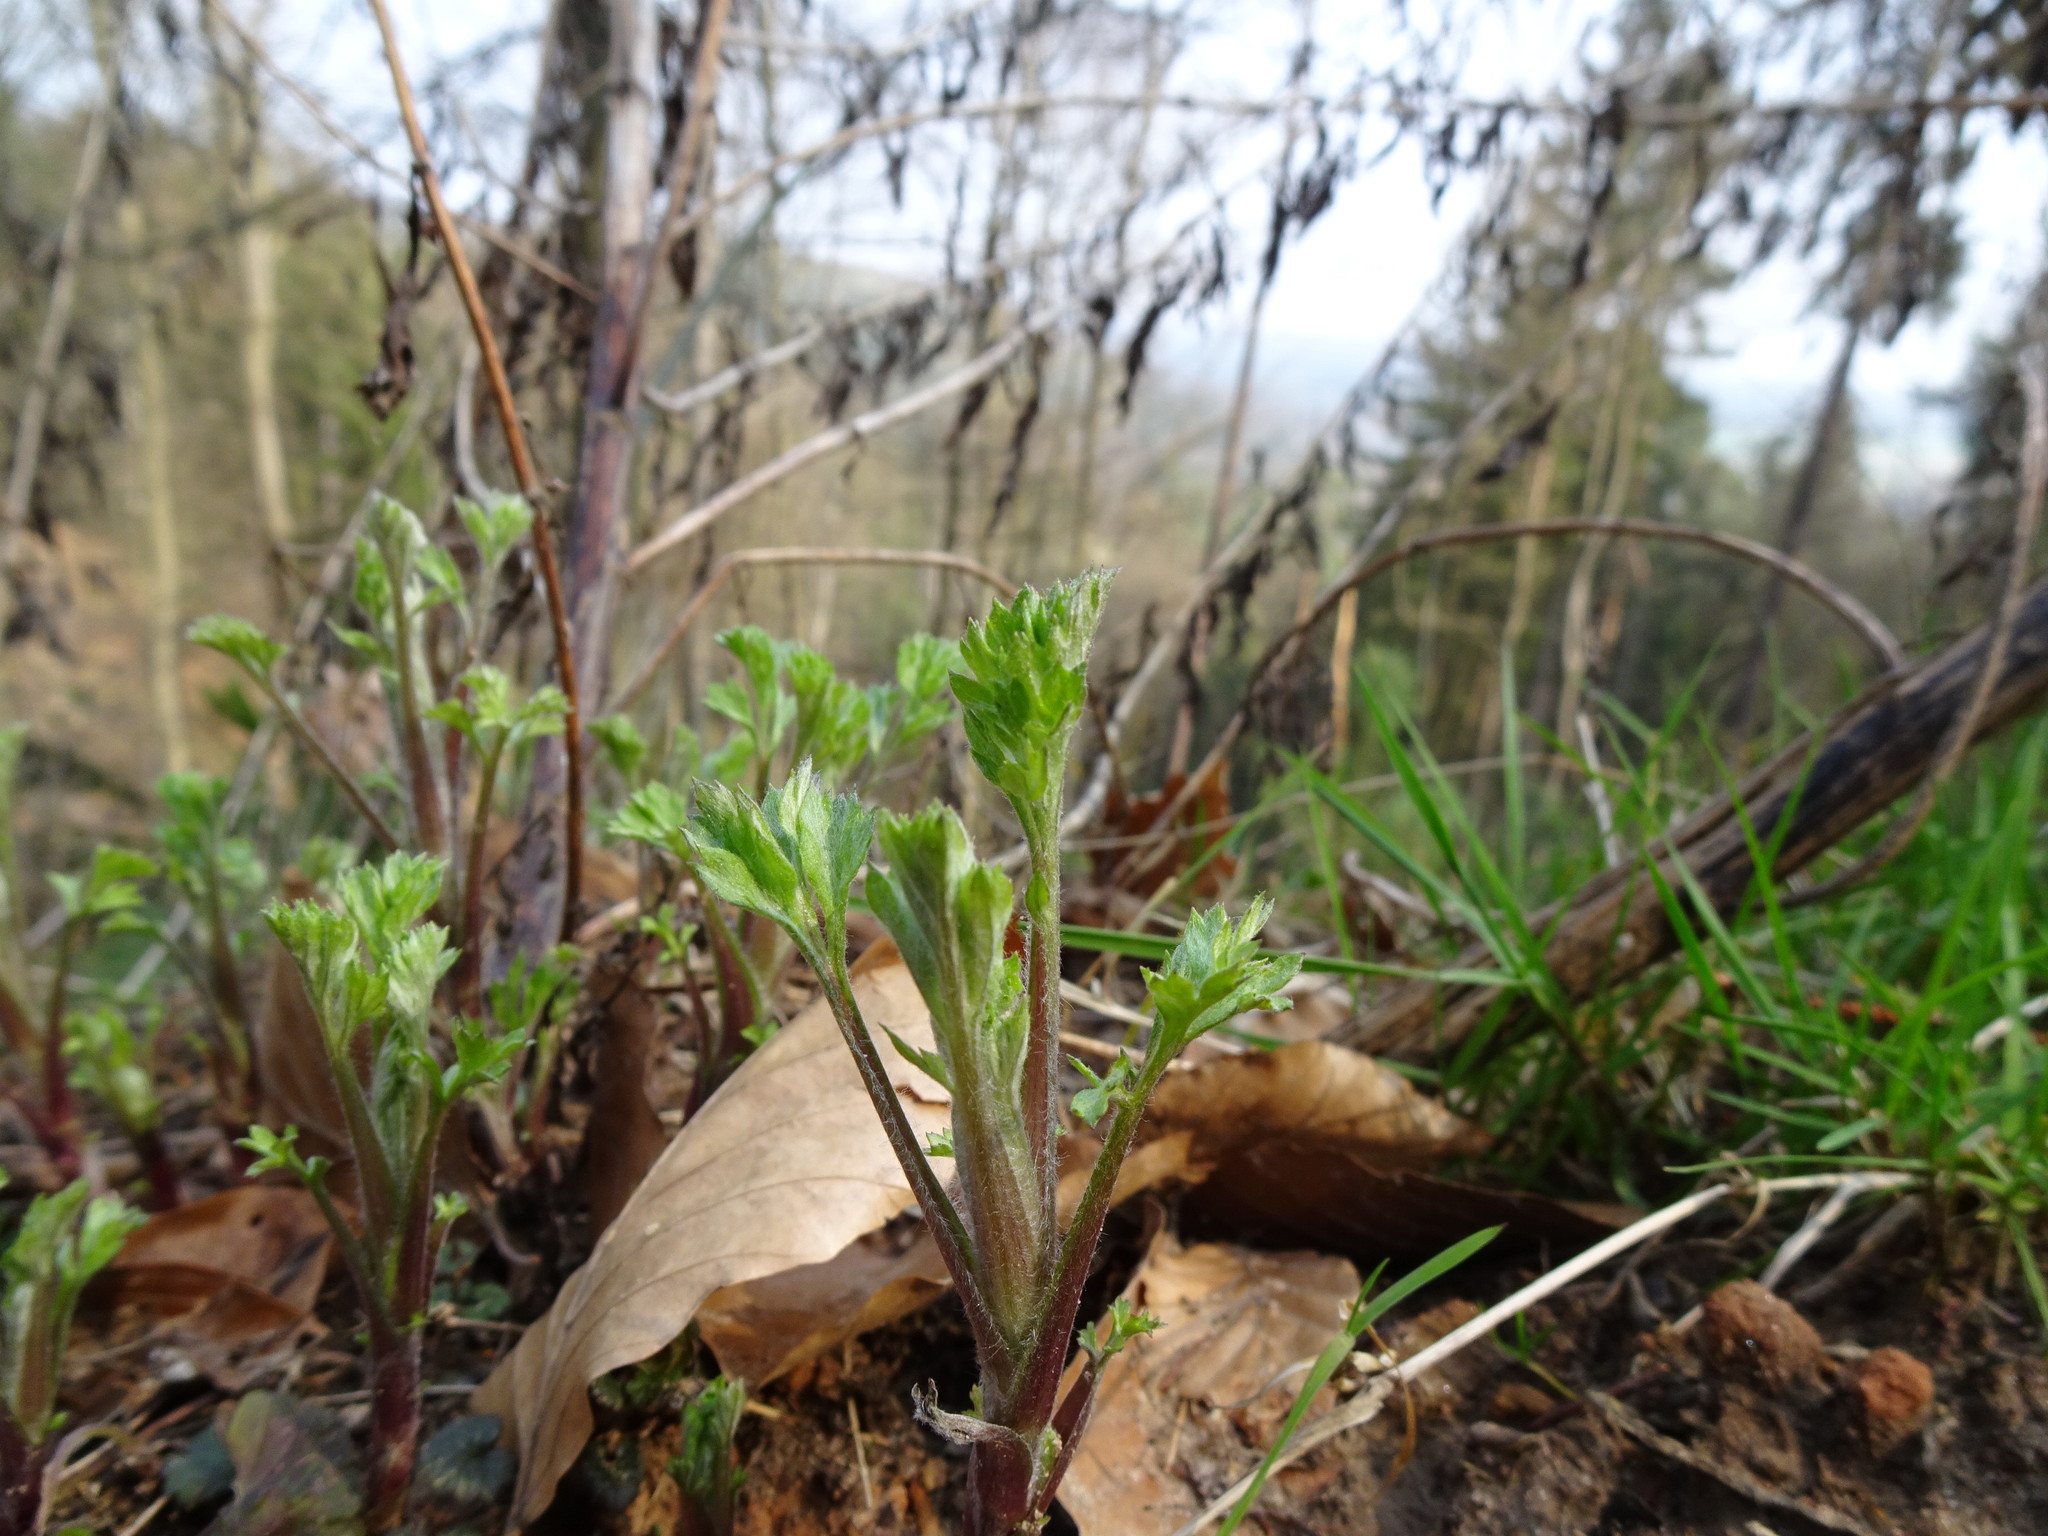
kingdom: Plantae
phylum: Tracheophyta
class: Magnoliopsida
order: Asterales
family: Asteraceae
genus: Artemisia
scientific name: Artemisia vulgaris
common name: Mugwort
